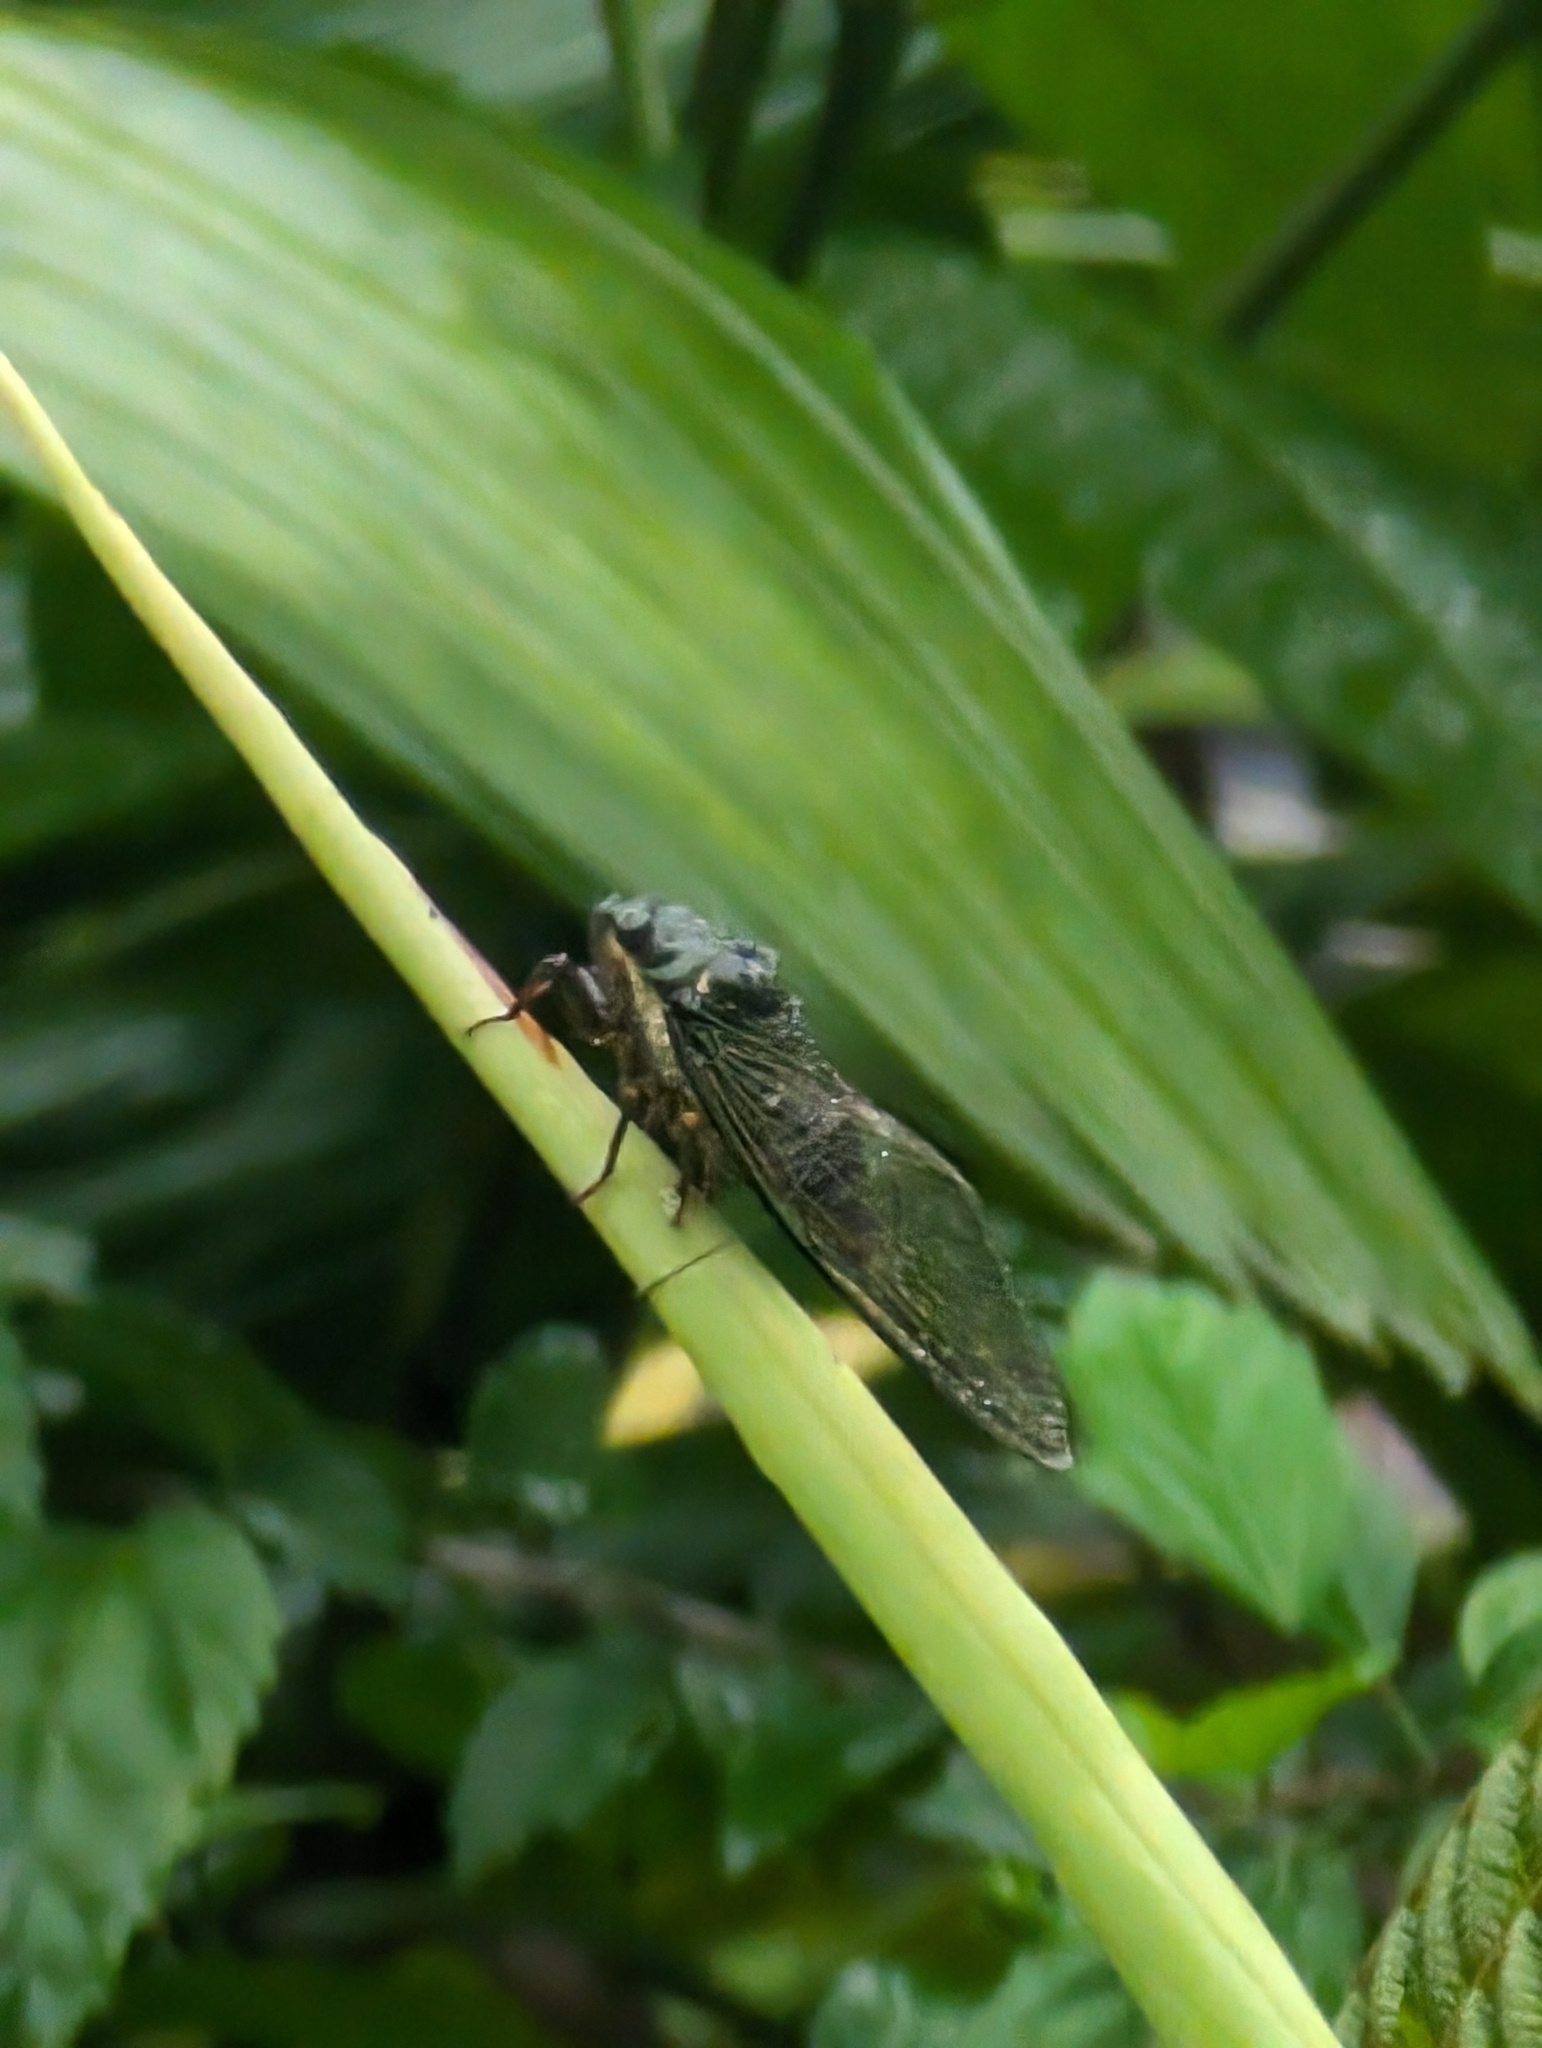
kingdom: Animalia
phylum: Arthropoda
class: Insecta
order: Hemiptera
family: Cicadidae
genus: Majeorona
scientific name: Majeorona truncata
